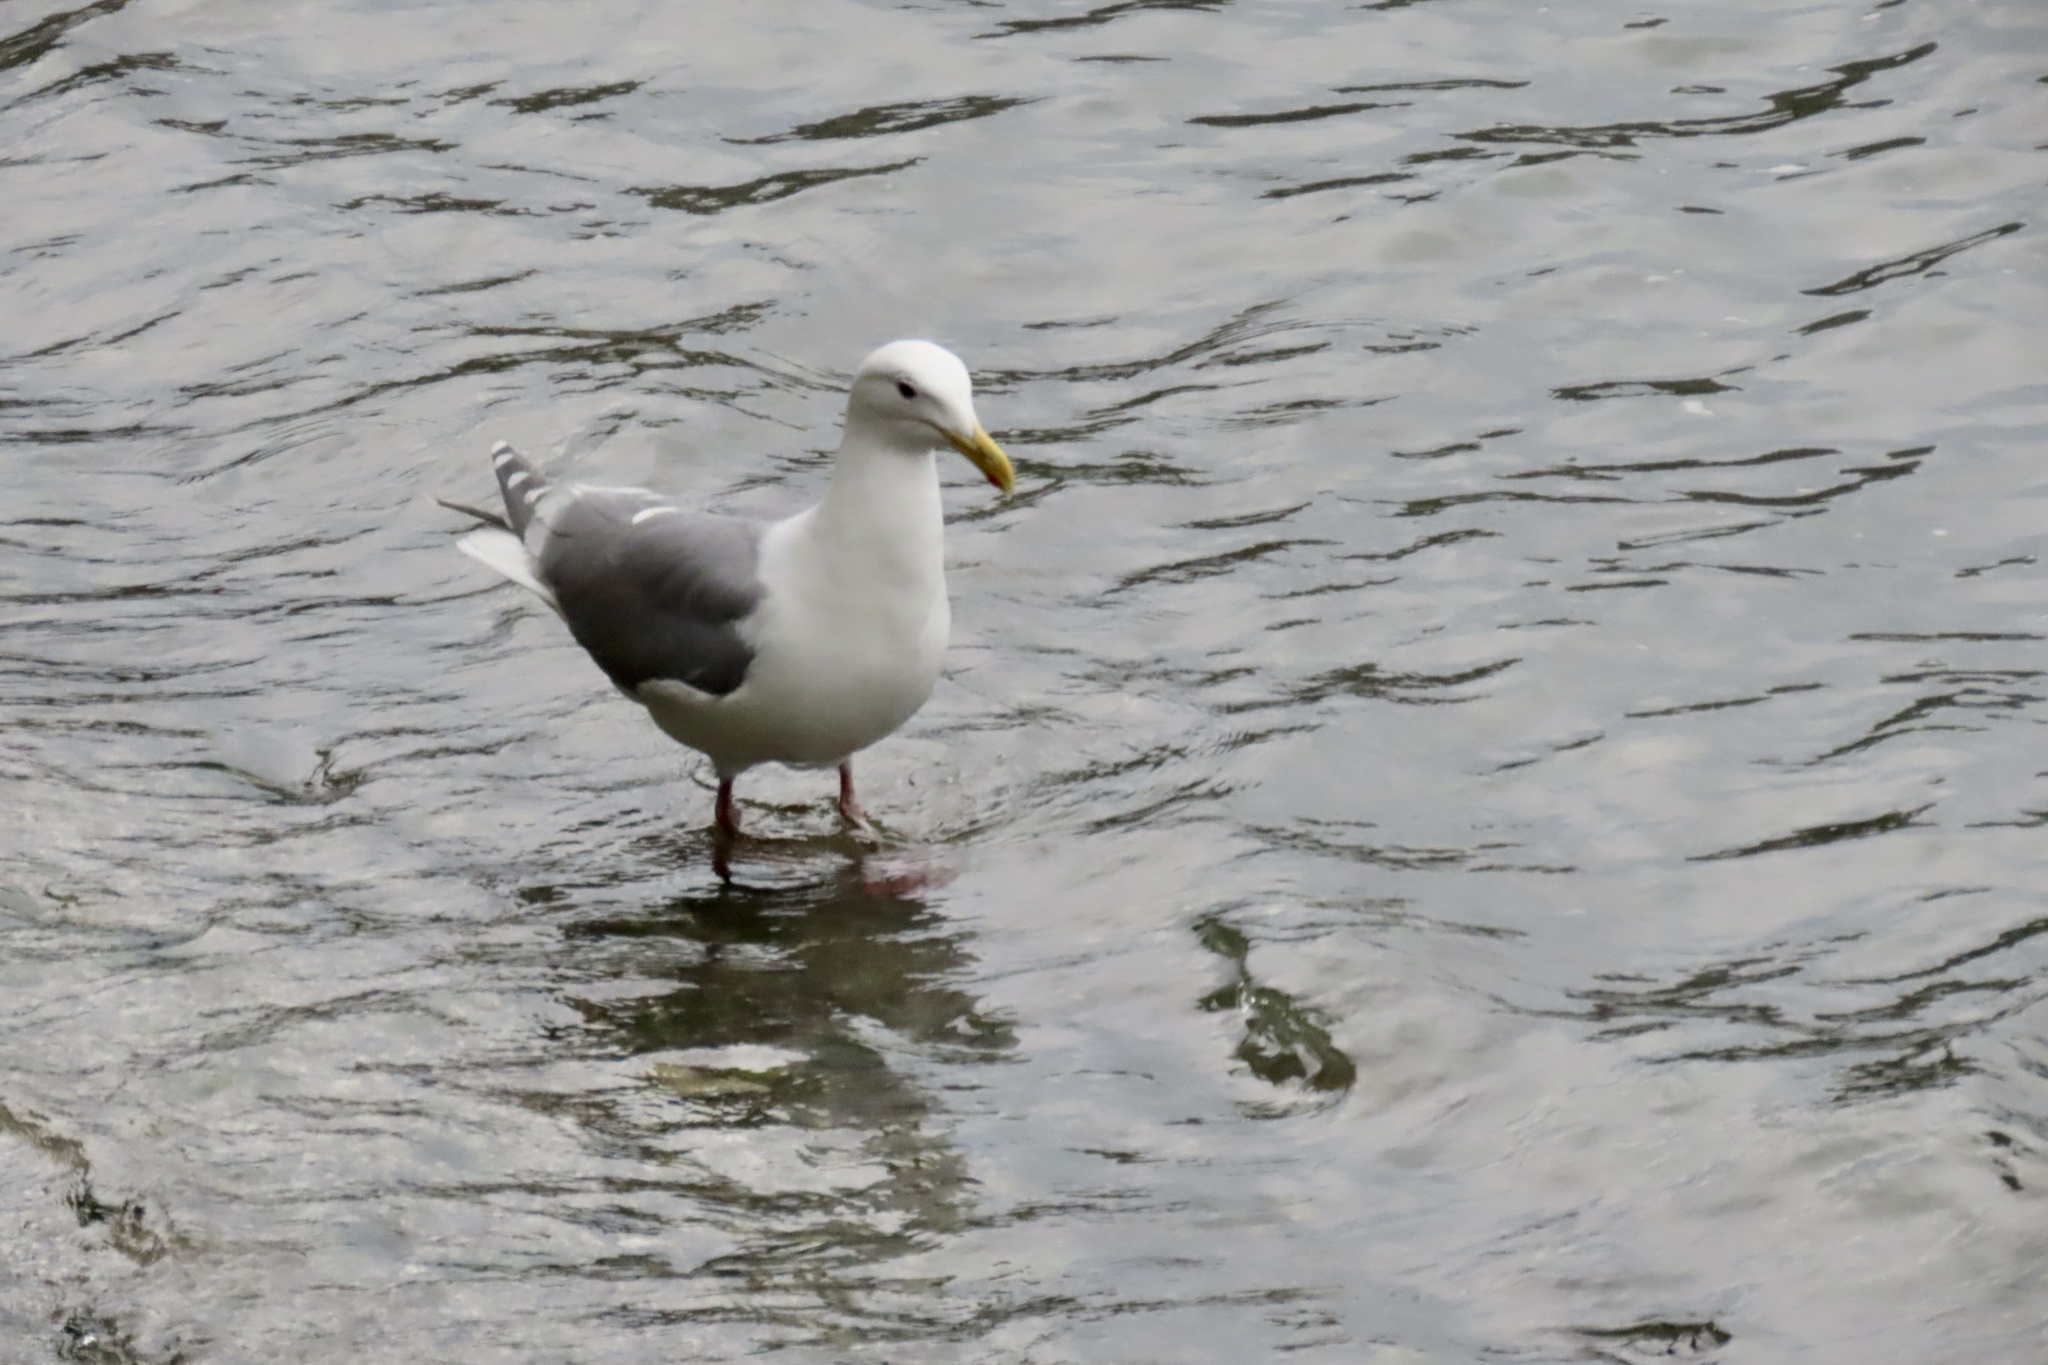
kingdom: Animalia
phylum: Chordata
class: Aves
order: Charadriiformes
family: Laridae
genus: Larus
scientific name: Larus
